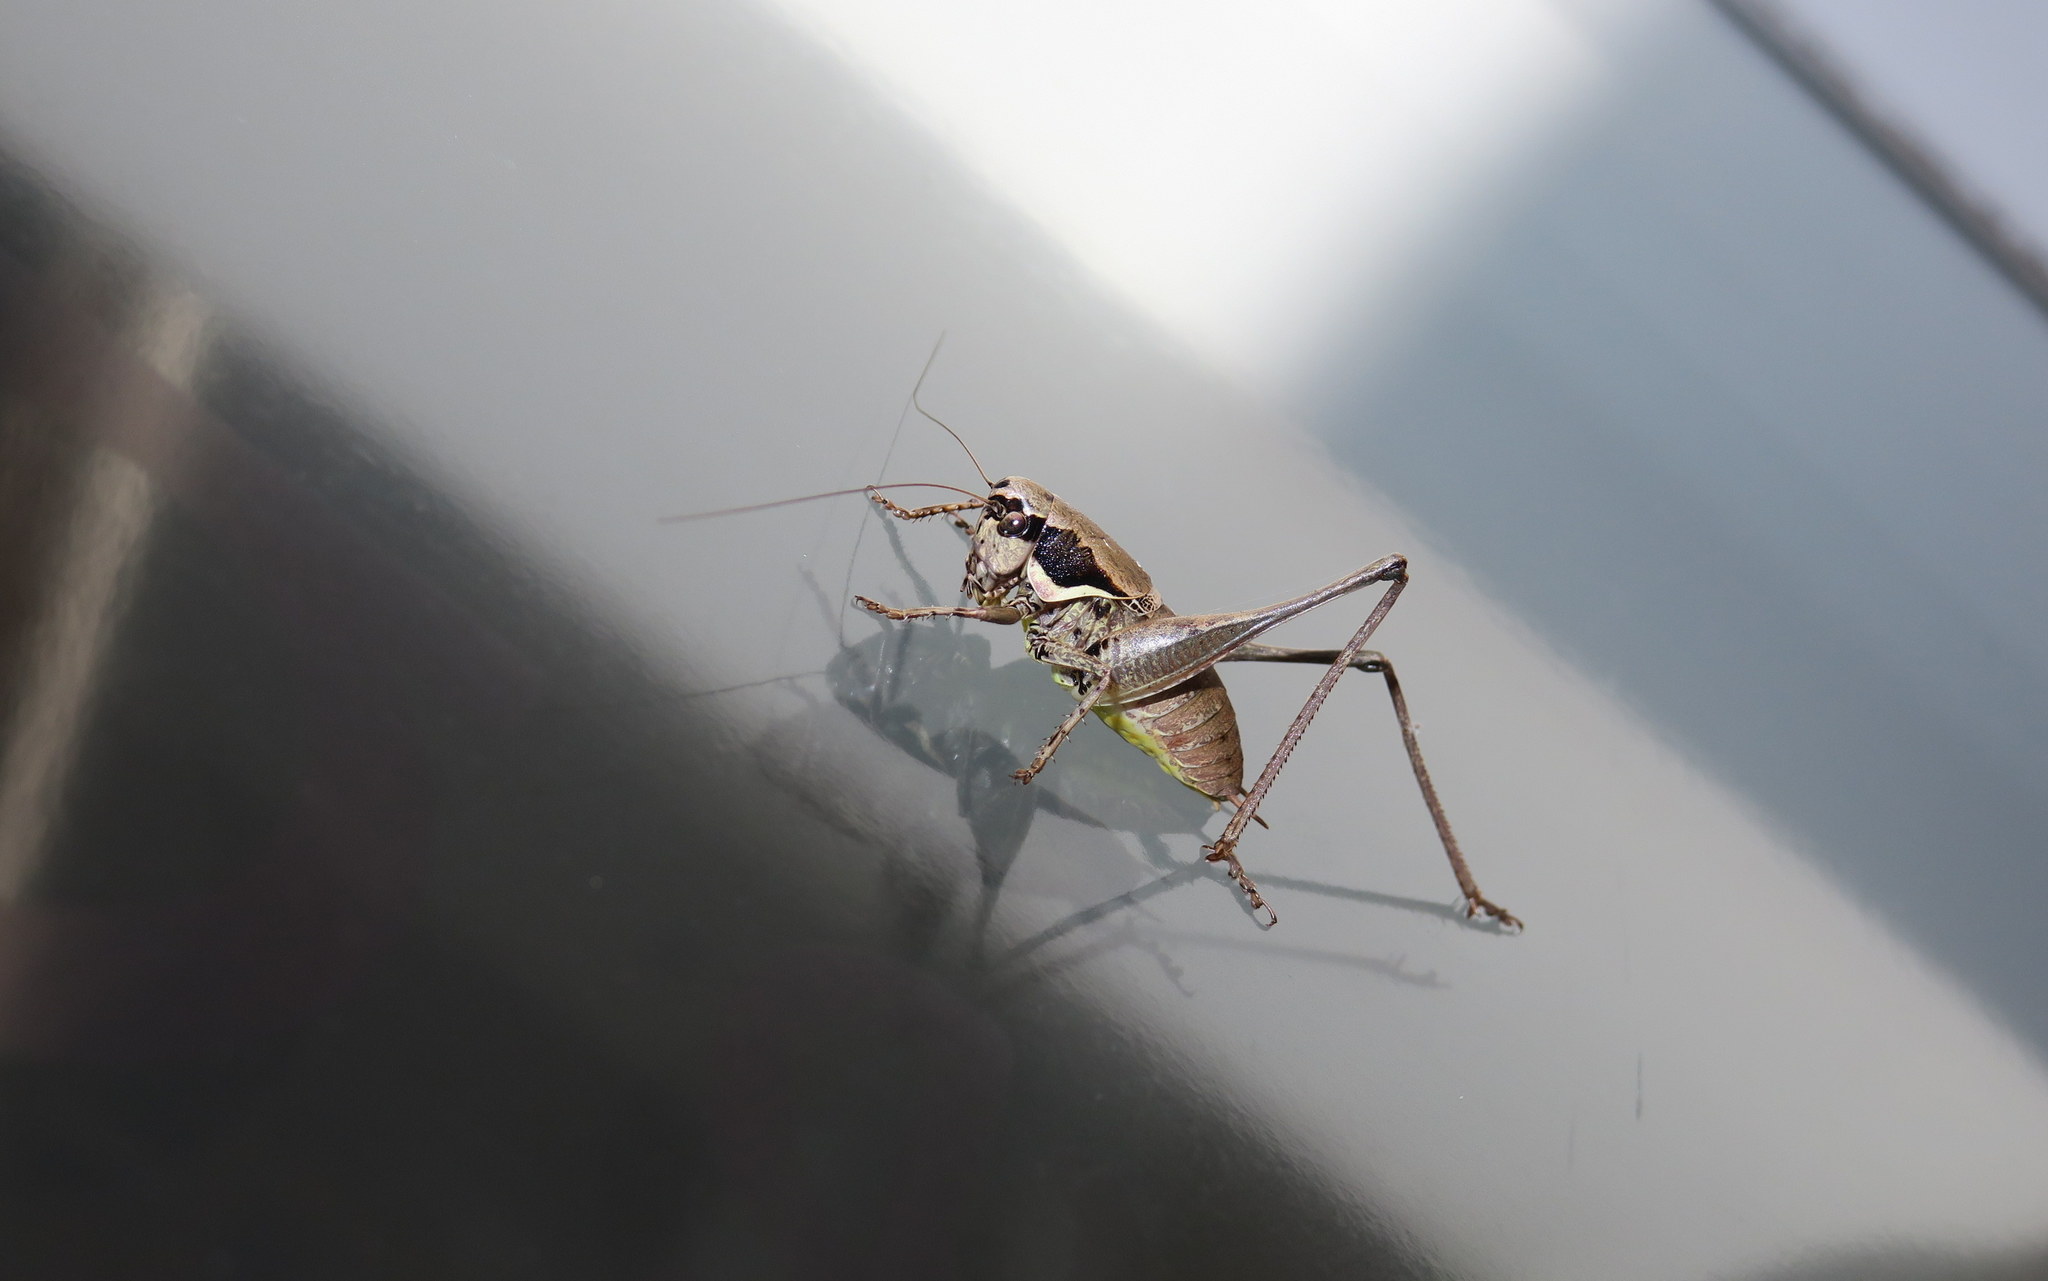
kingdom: Animalia
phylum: Arthropoda
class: Insecta
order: Orthoptera
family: Tettigoniidae
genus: Pholidoptera
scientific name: Pholidoptera femorata
